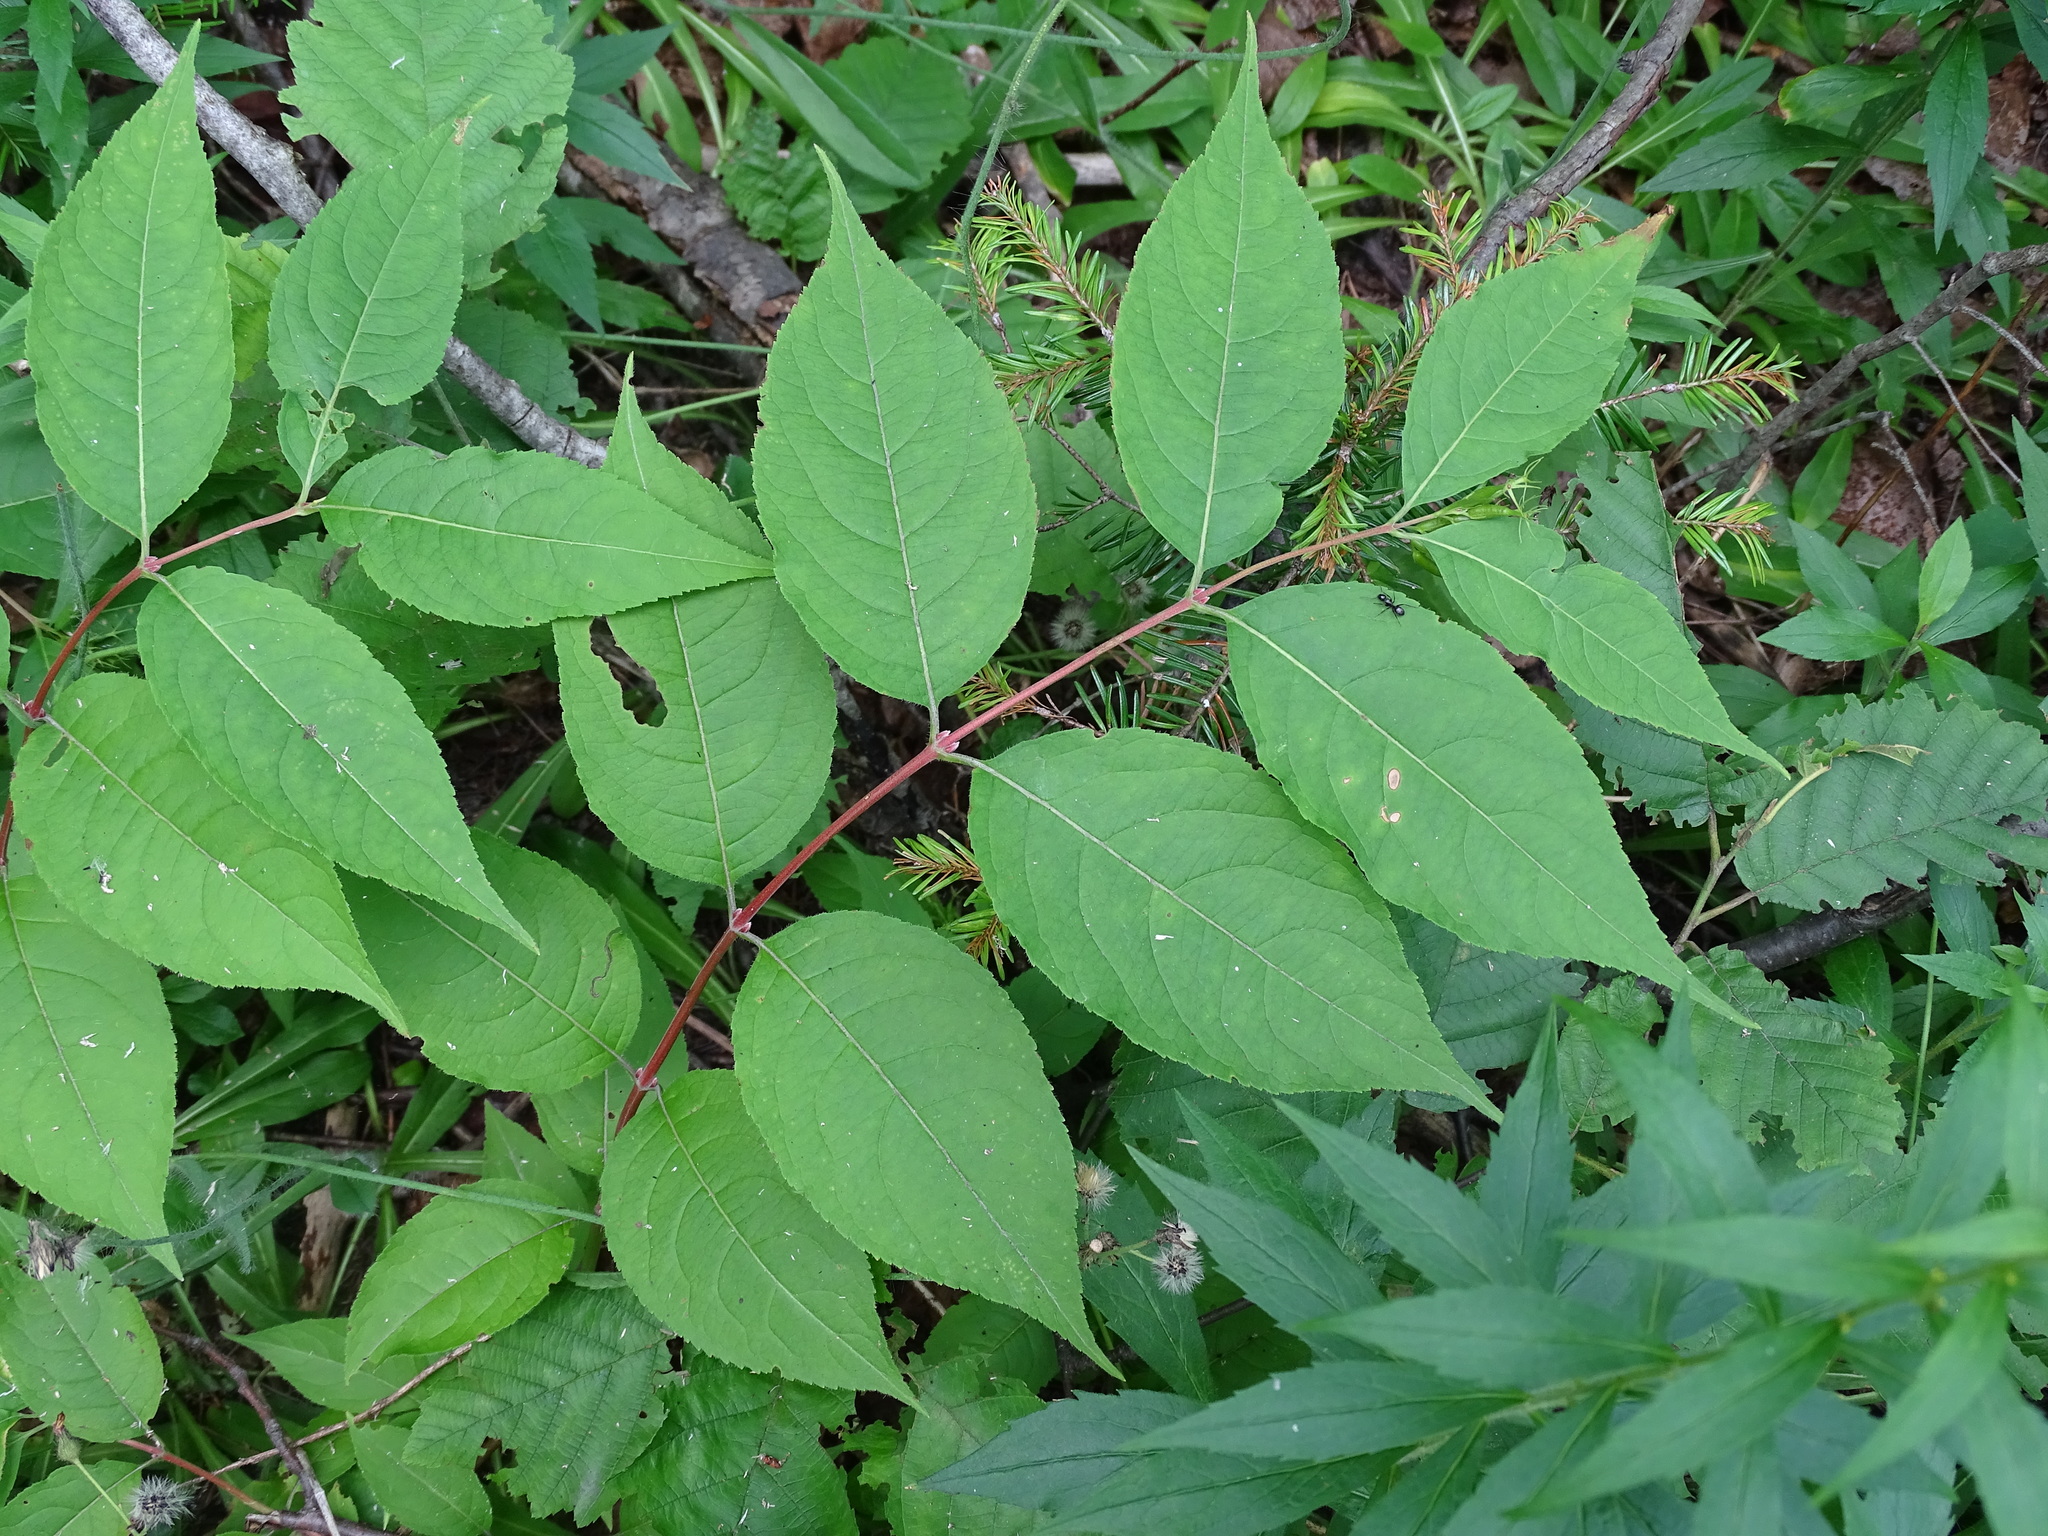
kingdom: Plantae
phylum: Tracheophyta
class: Magnoliopsida
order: Dipsacales
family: Caprifoliaceae
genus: Diervilla
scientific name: Diervilla lonicera
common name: Bush-honeysuckle
